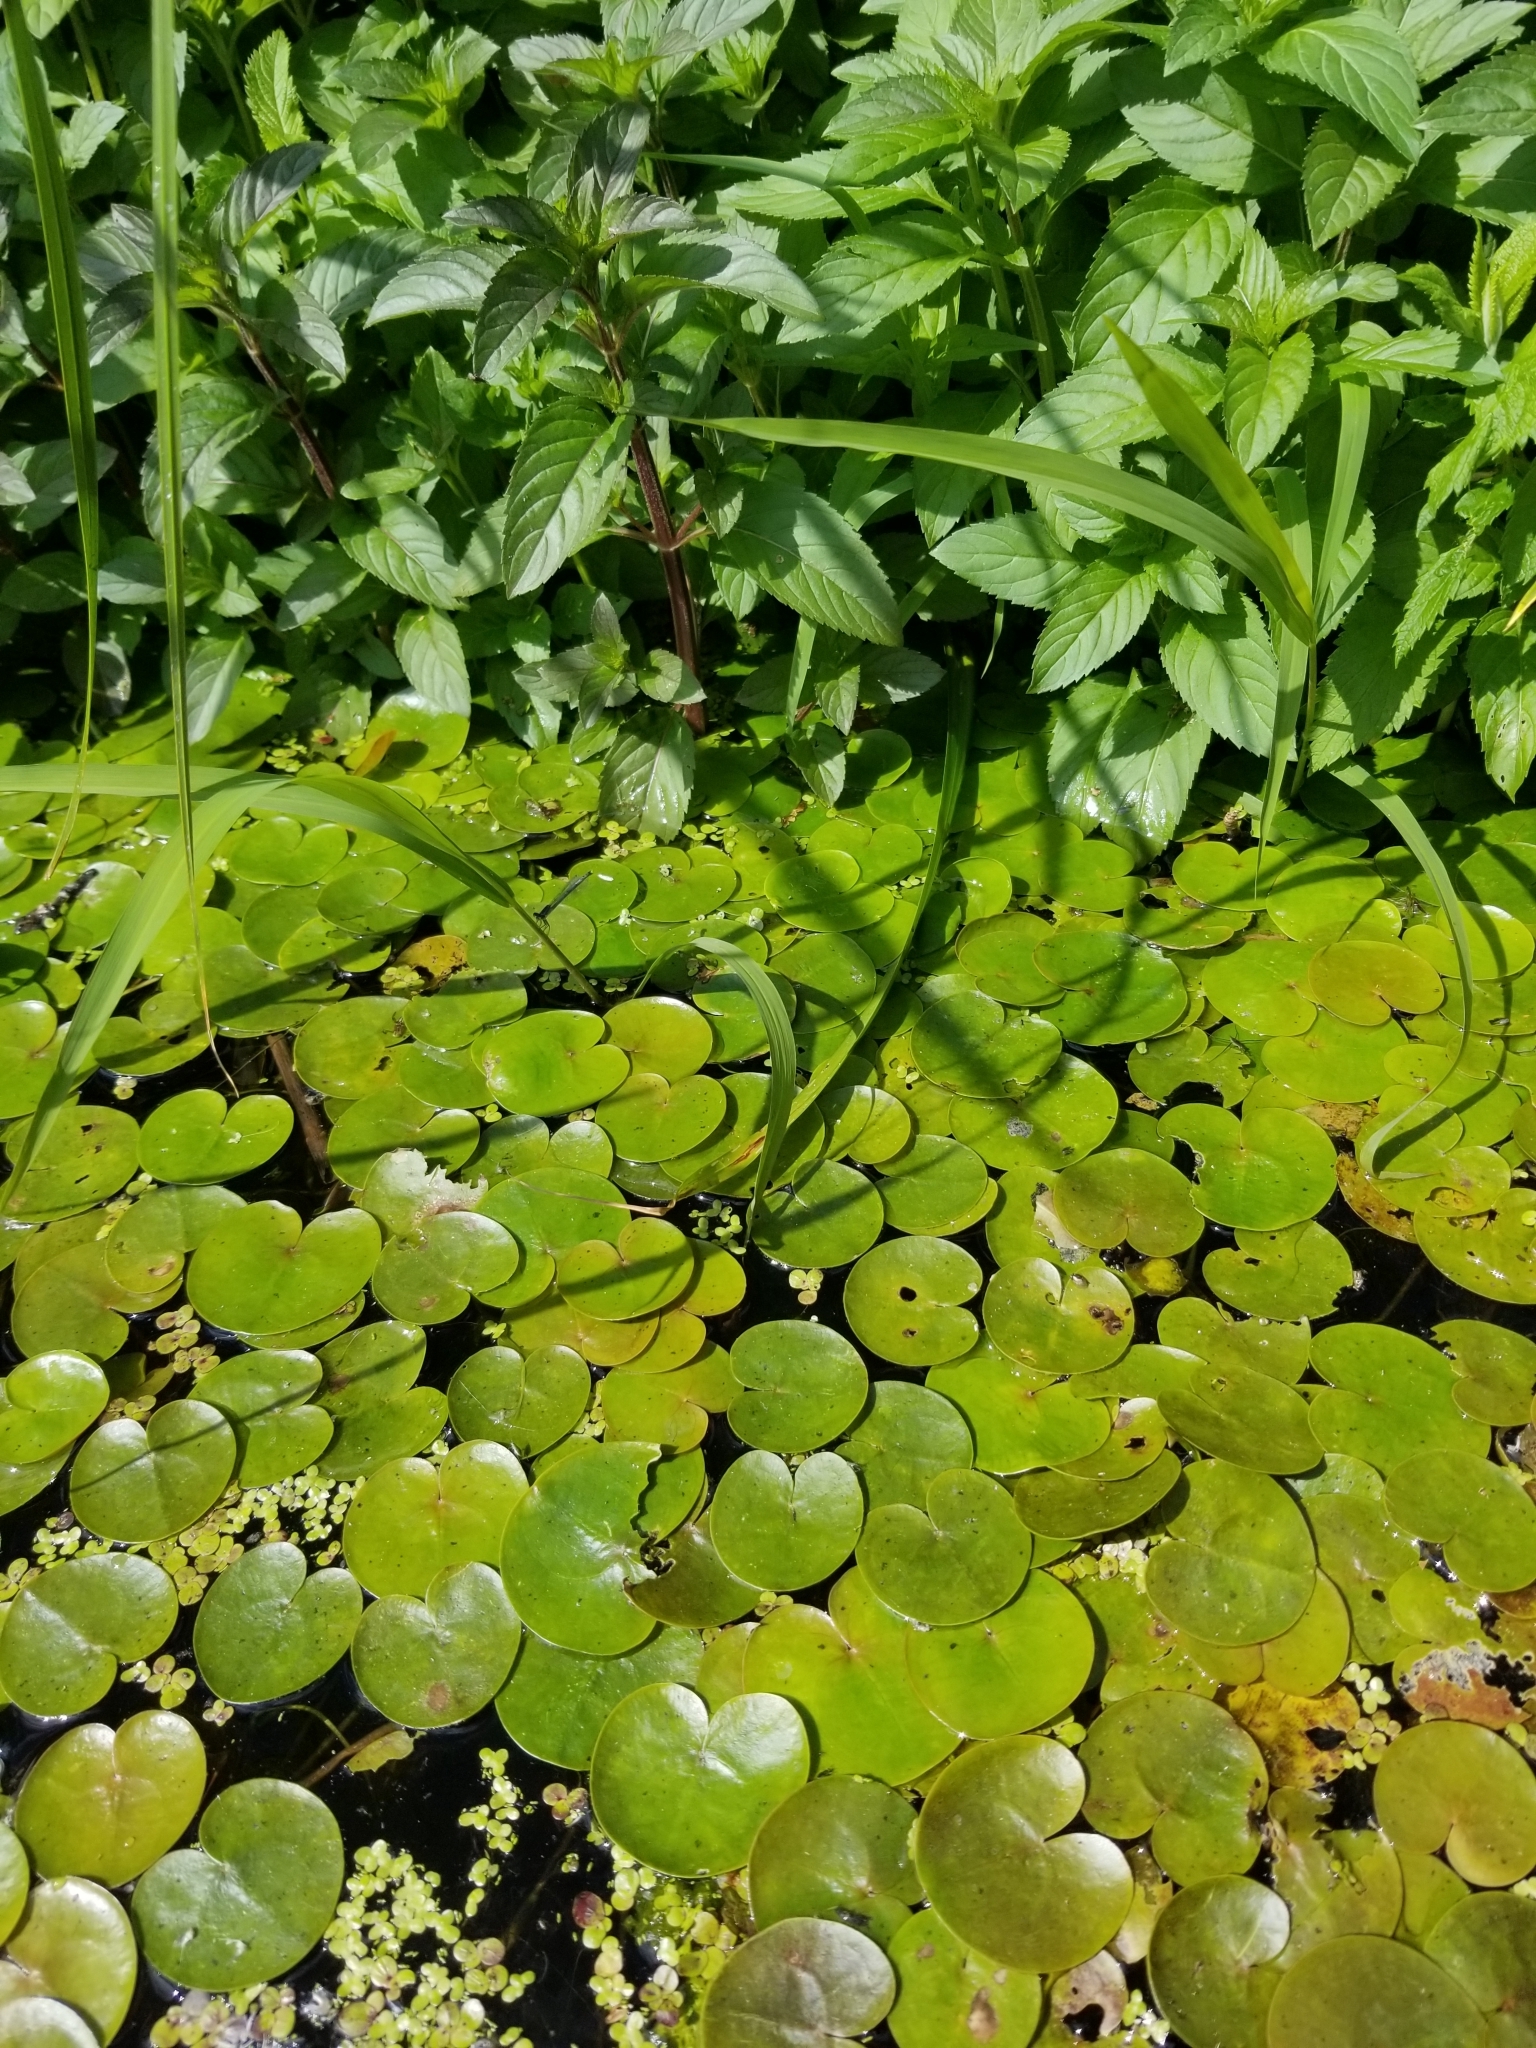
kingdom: Plantae
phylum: Tracheophyta
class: Liliopsida
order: Alismatales
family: Hydrocharitaceae
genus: Hydrocharis
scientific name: Hydrocharis morsus-ranae
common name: Frogbit
